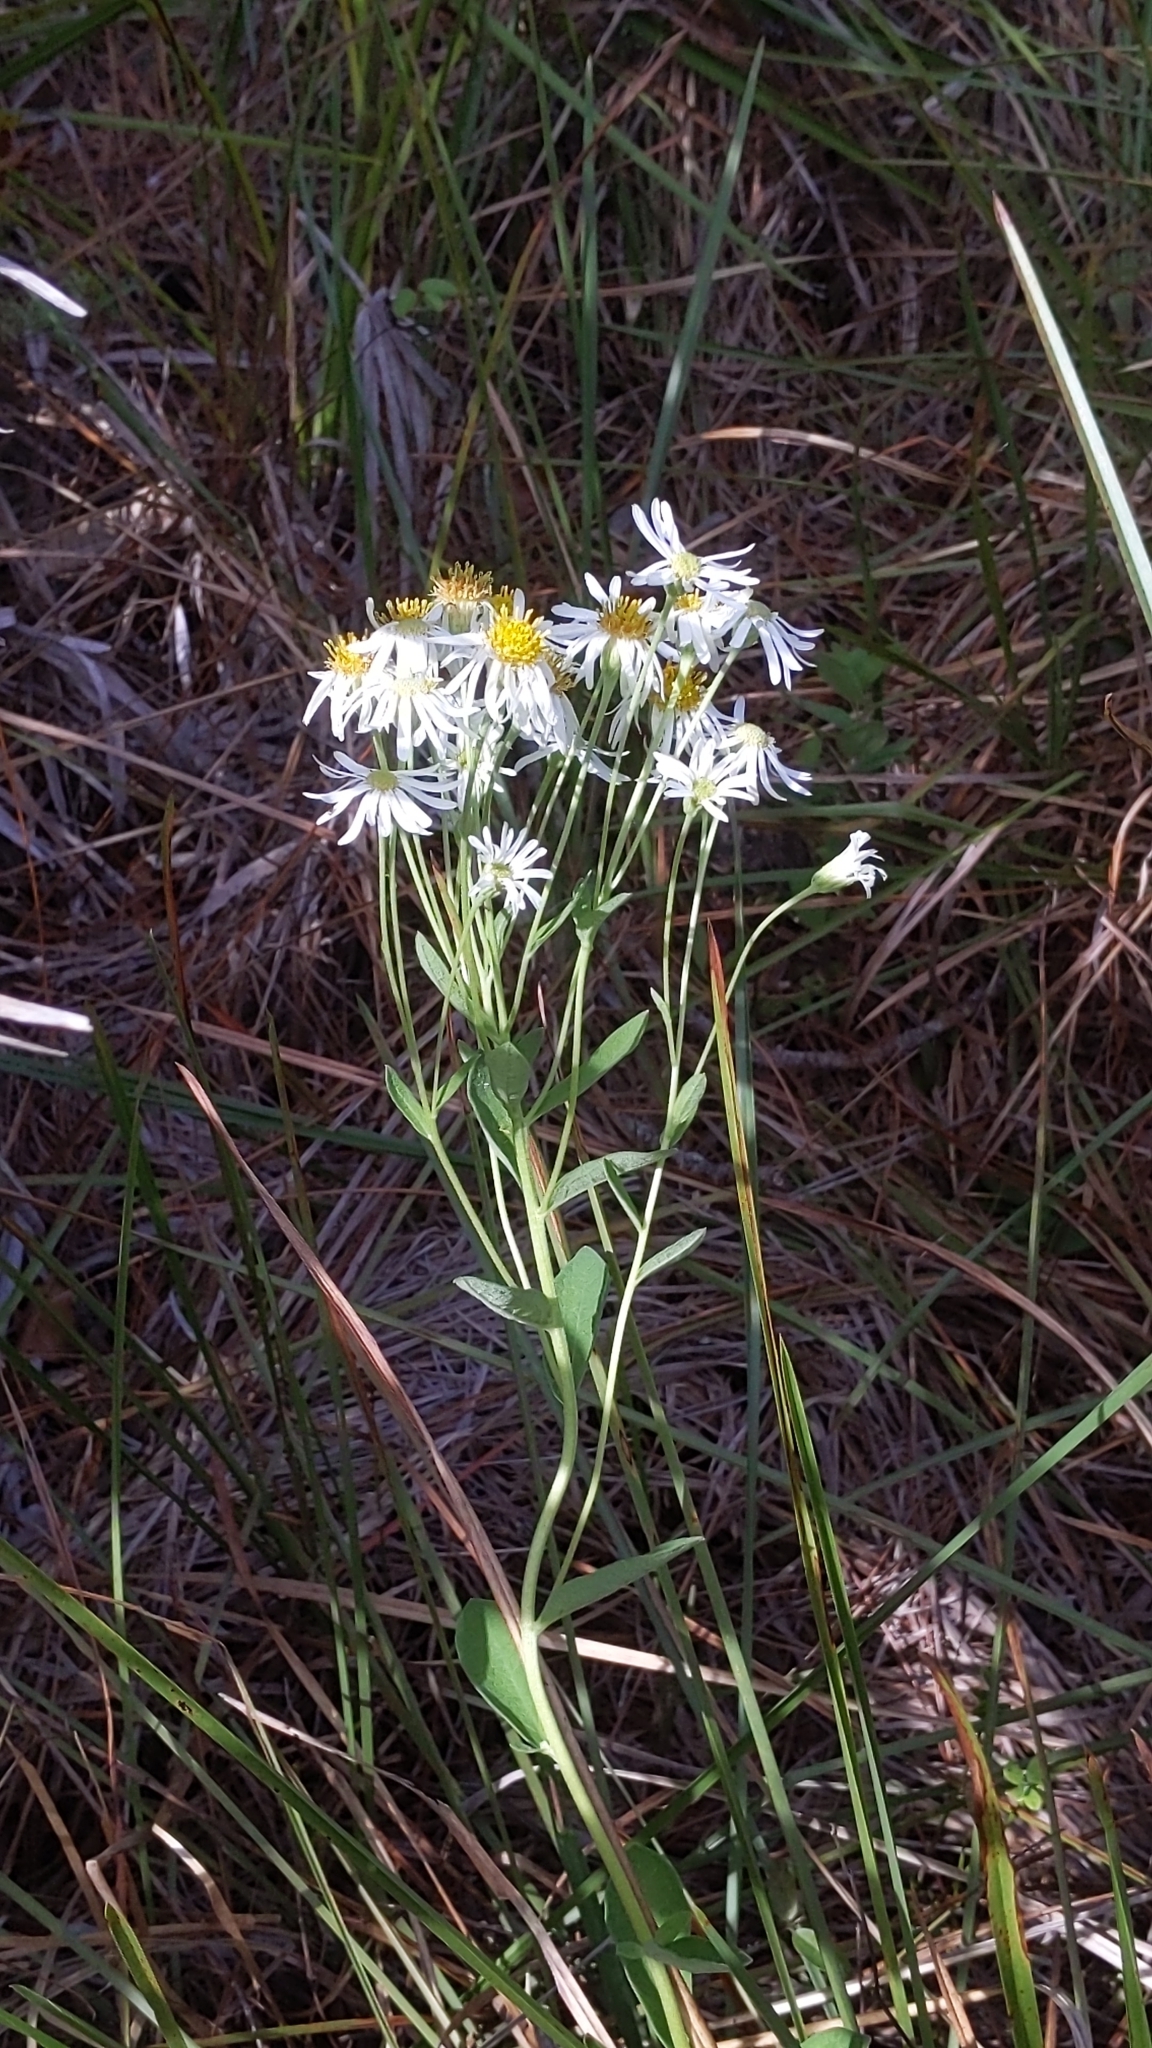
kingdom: Plantae
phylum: Tracheophyta
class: Magnoliopsida
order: Asterales
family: Asteraceae
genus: Oclemena
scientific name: Oclemena reticulata
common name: Pinebarren aster
